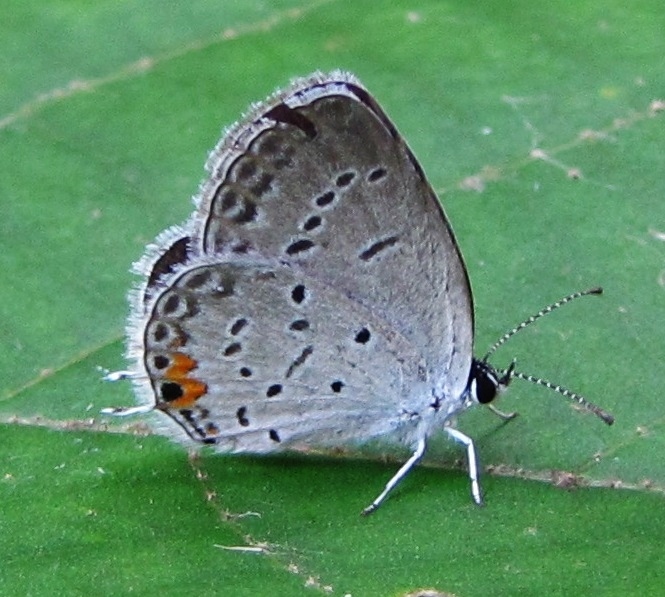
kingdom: Animalia
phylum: Arthropoda
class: Insecta
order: Lepidoptera
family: Lycaenidae
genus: Elkalyce
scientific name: Elkalyce comyntas
